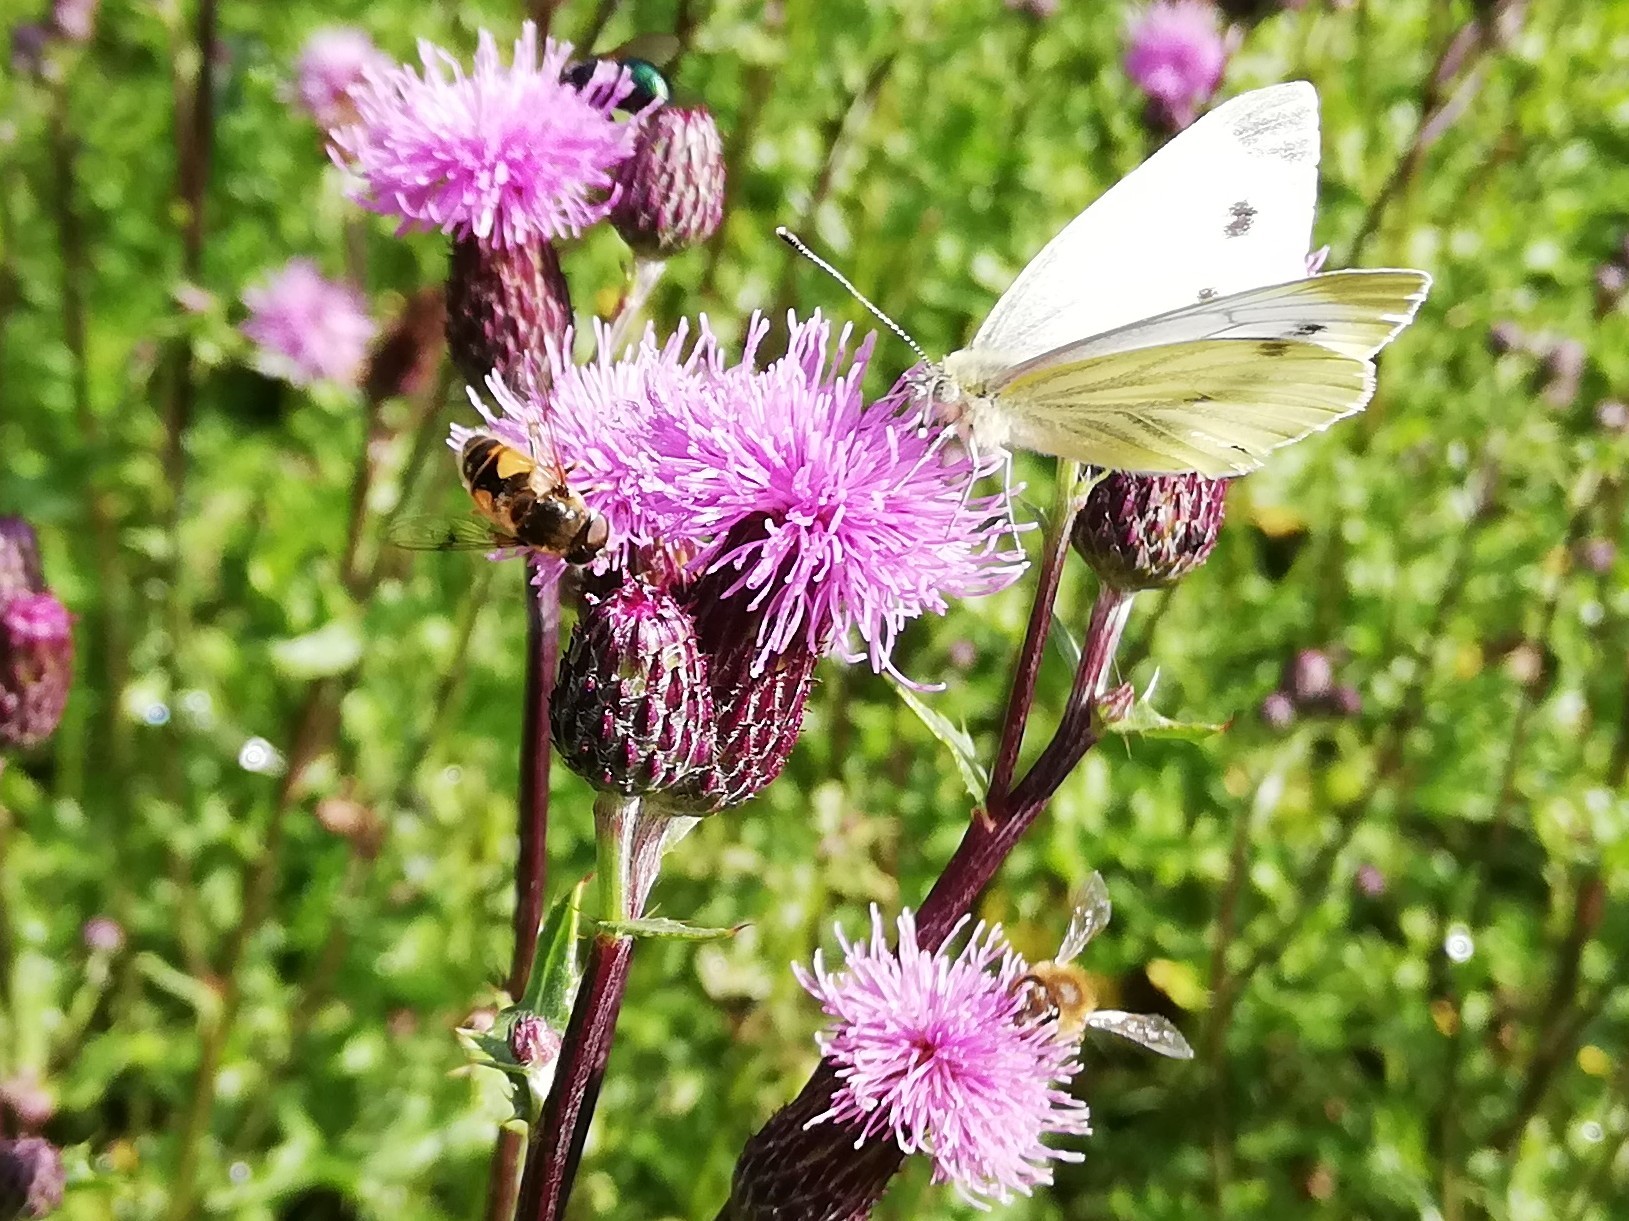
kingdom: Animalia
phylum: Arthropoda
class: Insecta
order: Lepidoptera
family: Pieridae
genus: Pieris
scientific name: Pieris napi
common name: Green-veined white
